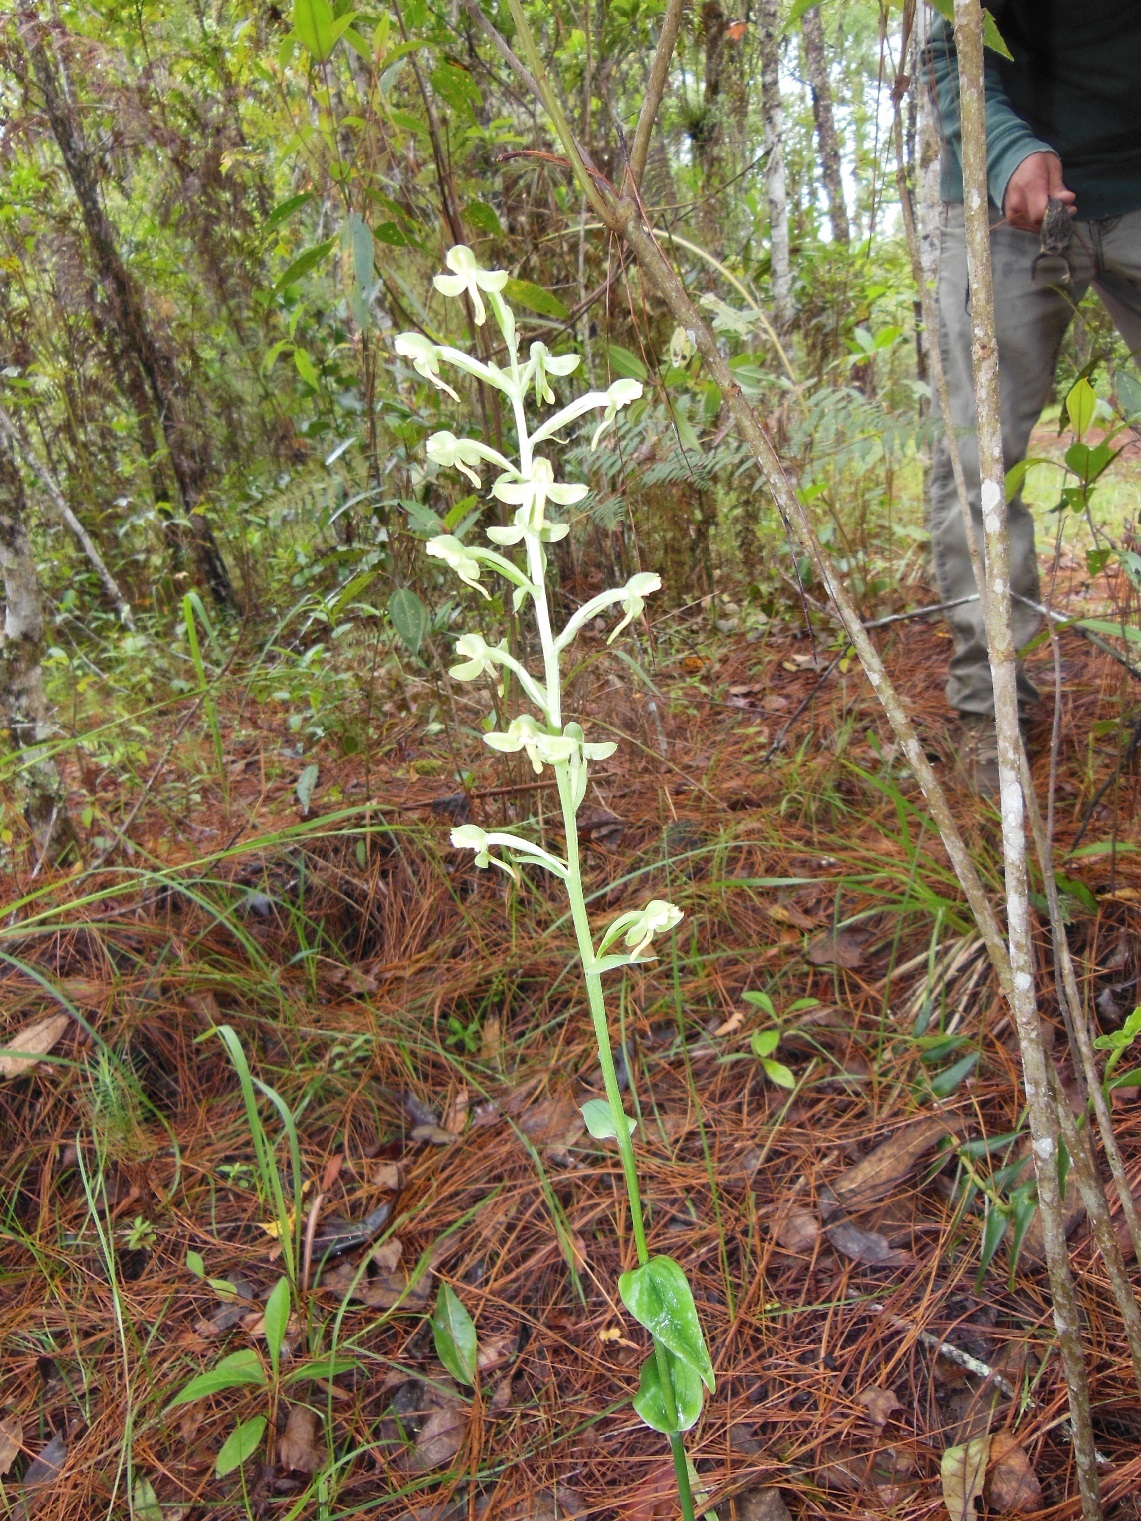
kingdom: Plantae
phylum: Tracheophyta
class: Liliopsida
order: Asparagales
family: Orchidaceae
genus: Habenaria
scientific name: Habenaria floribunda
